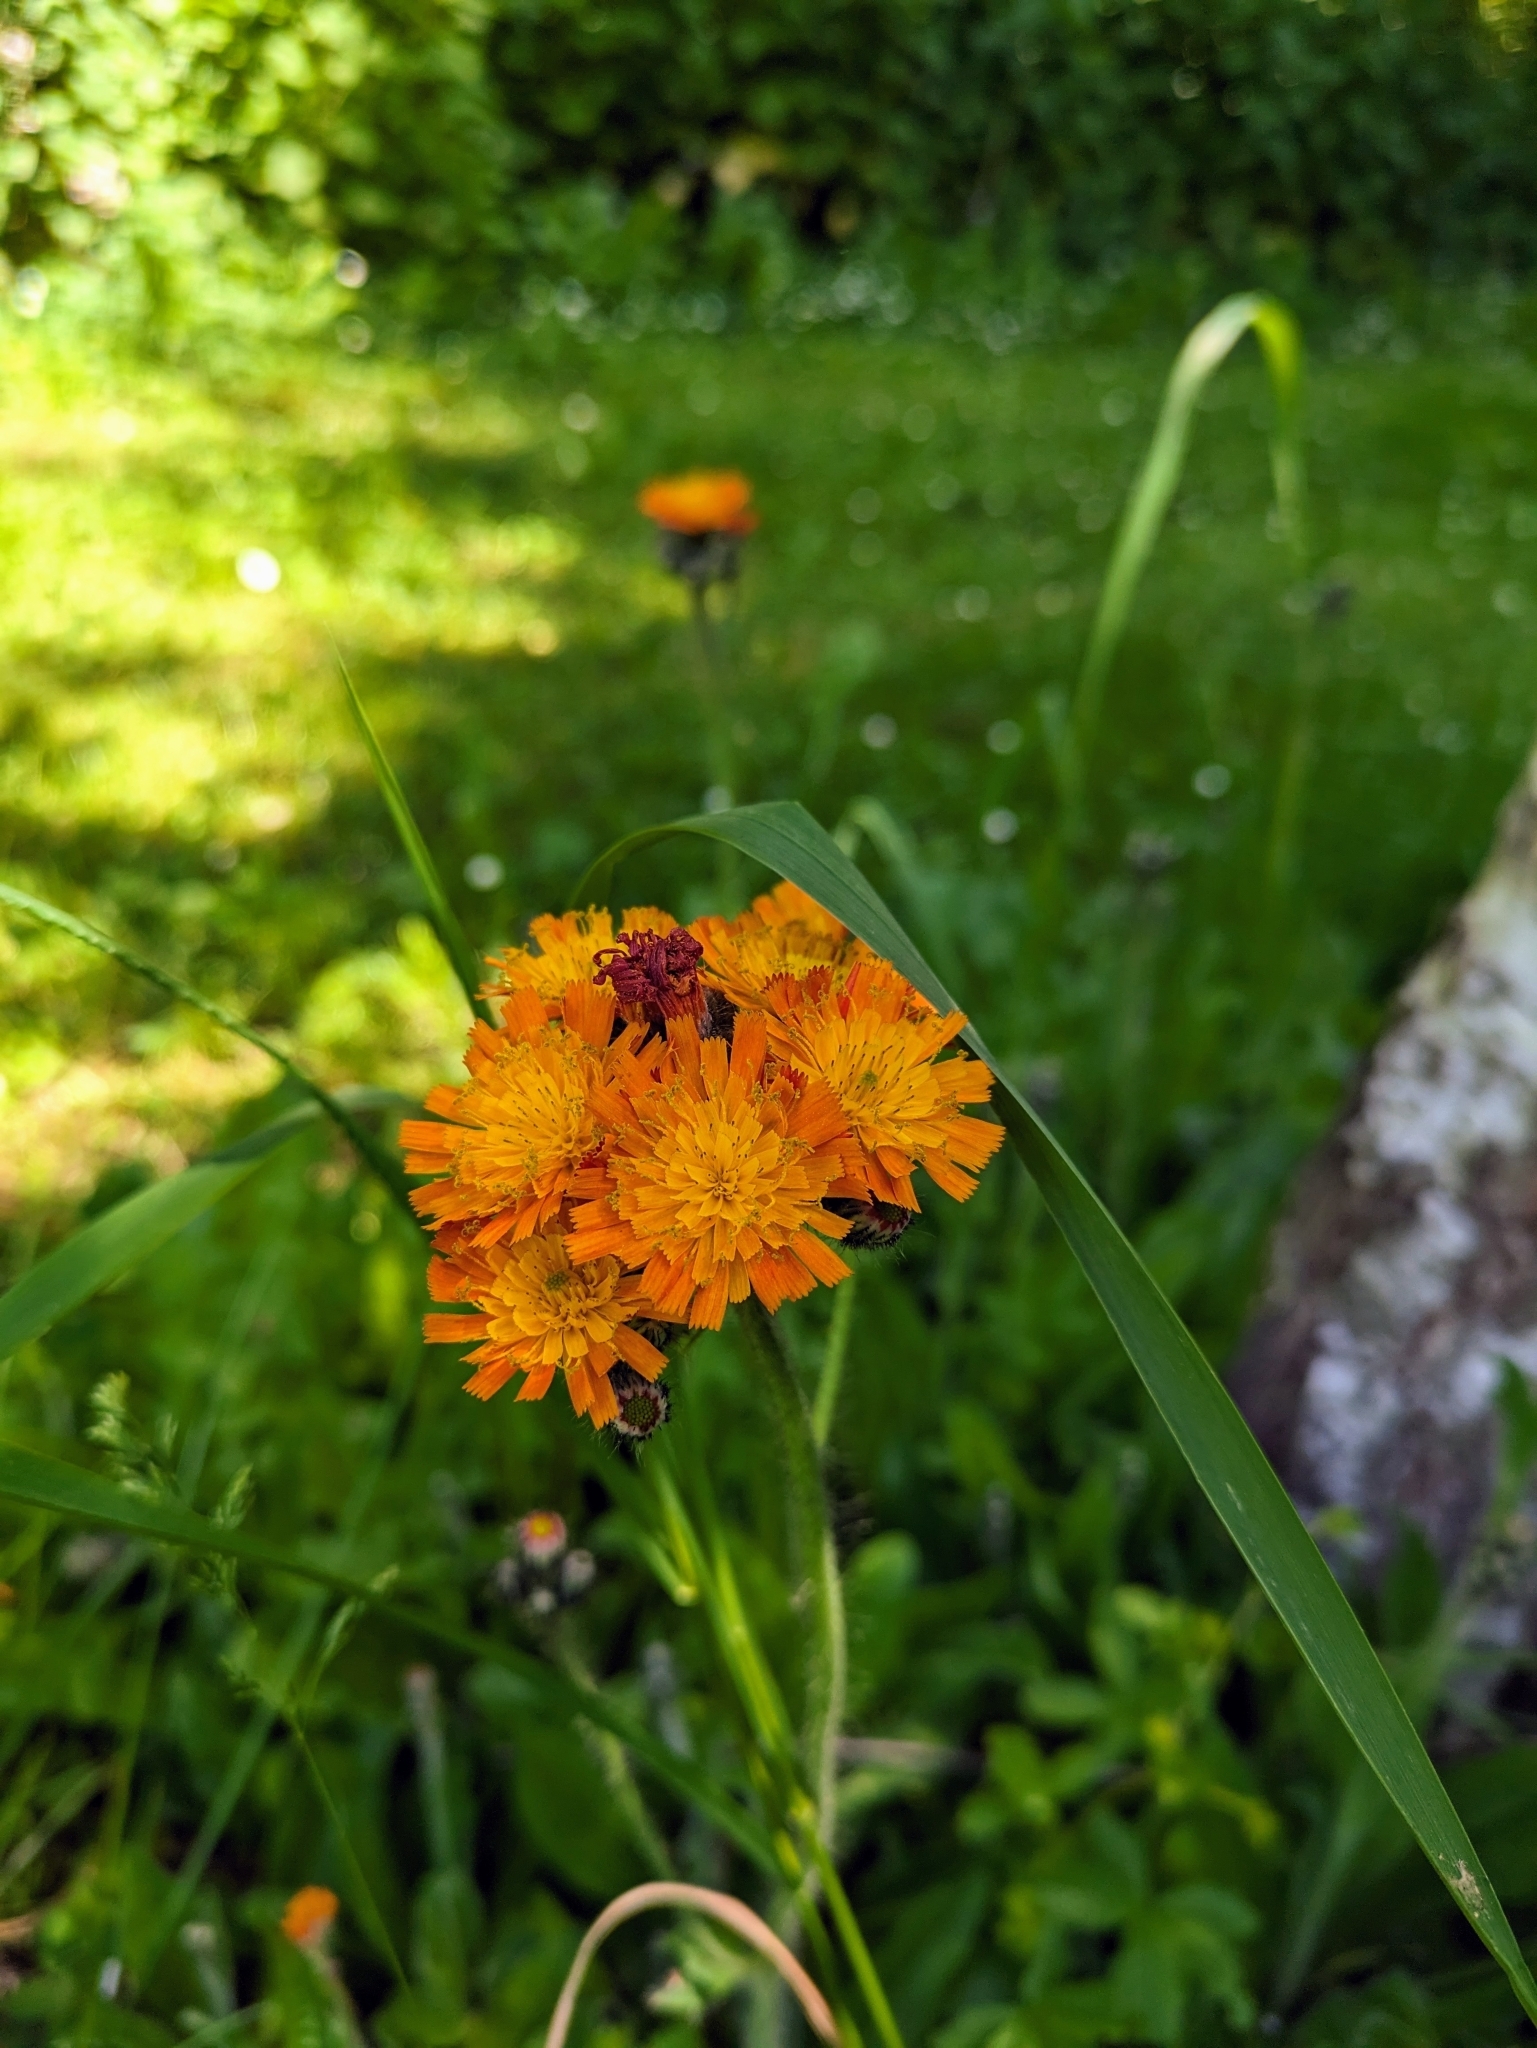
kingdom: Plantae
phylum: Tracheophyta
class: Magnoliopsida
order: Asterales
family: Asteraceae
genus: Pilosella
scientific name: Pilosella aurantiaca
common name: Fox-and-cubs
